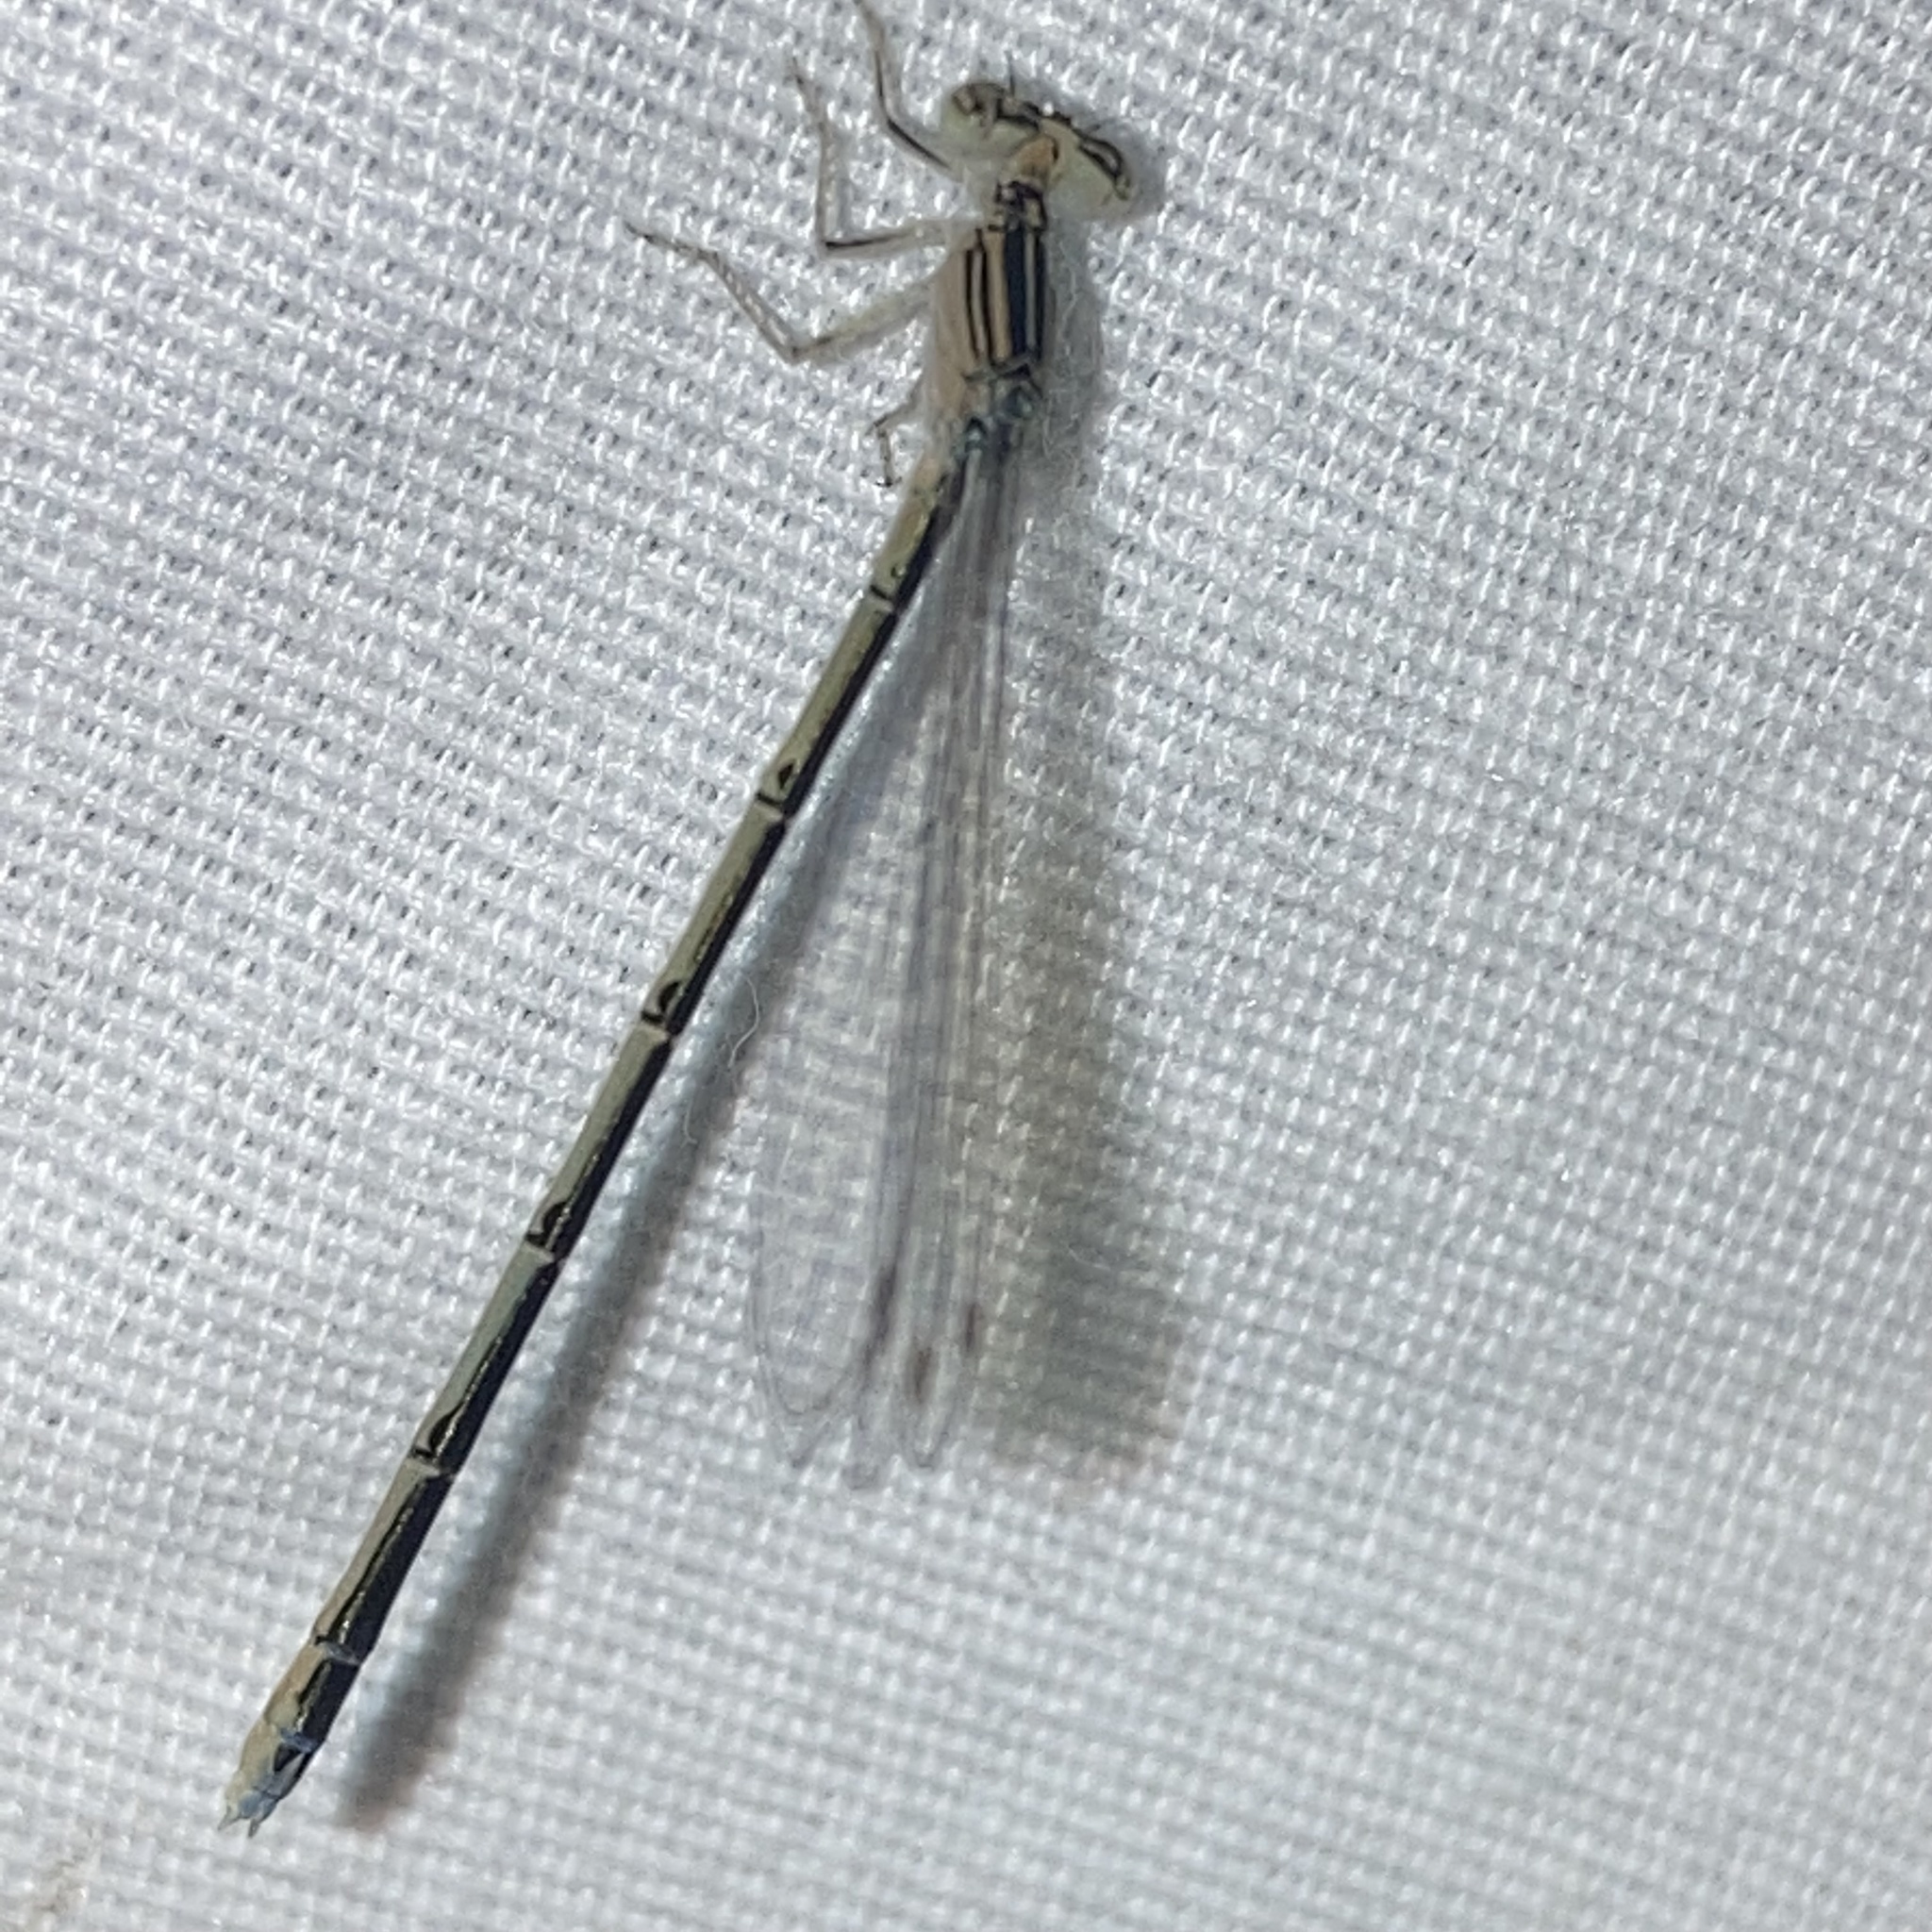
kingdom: Animalia
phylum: Arthropoda
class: Insecta
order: Odonata
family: Coenagrionidae
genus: Enallagma
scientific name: Enallagma basidens
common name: Double-striped bluet
